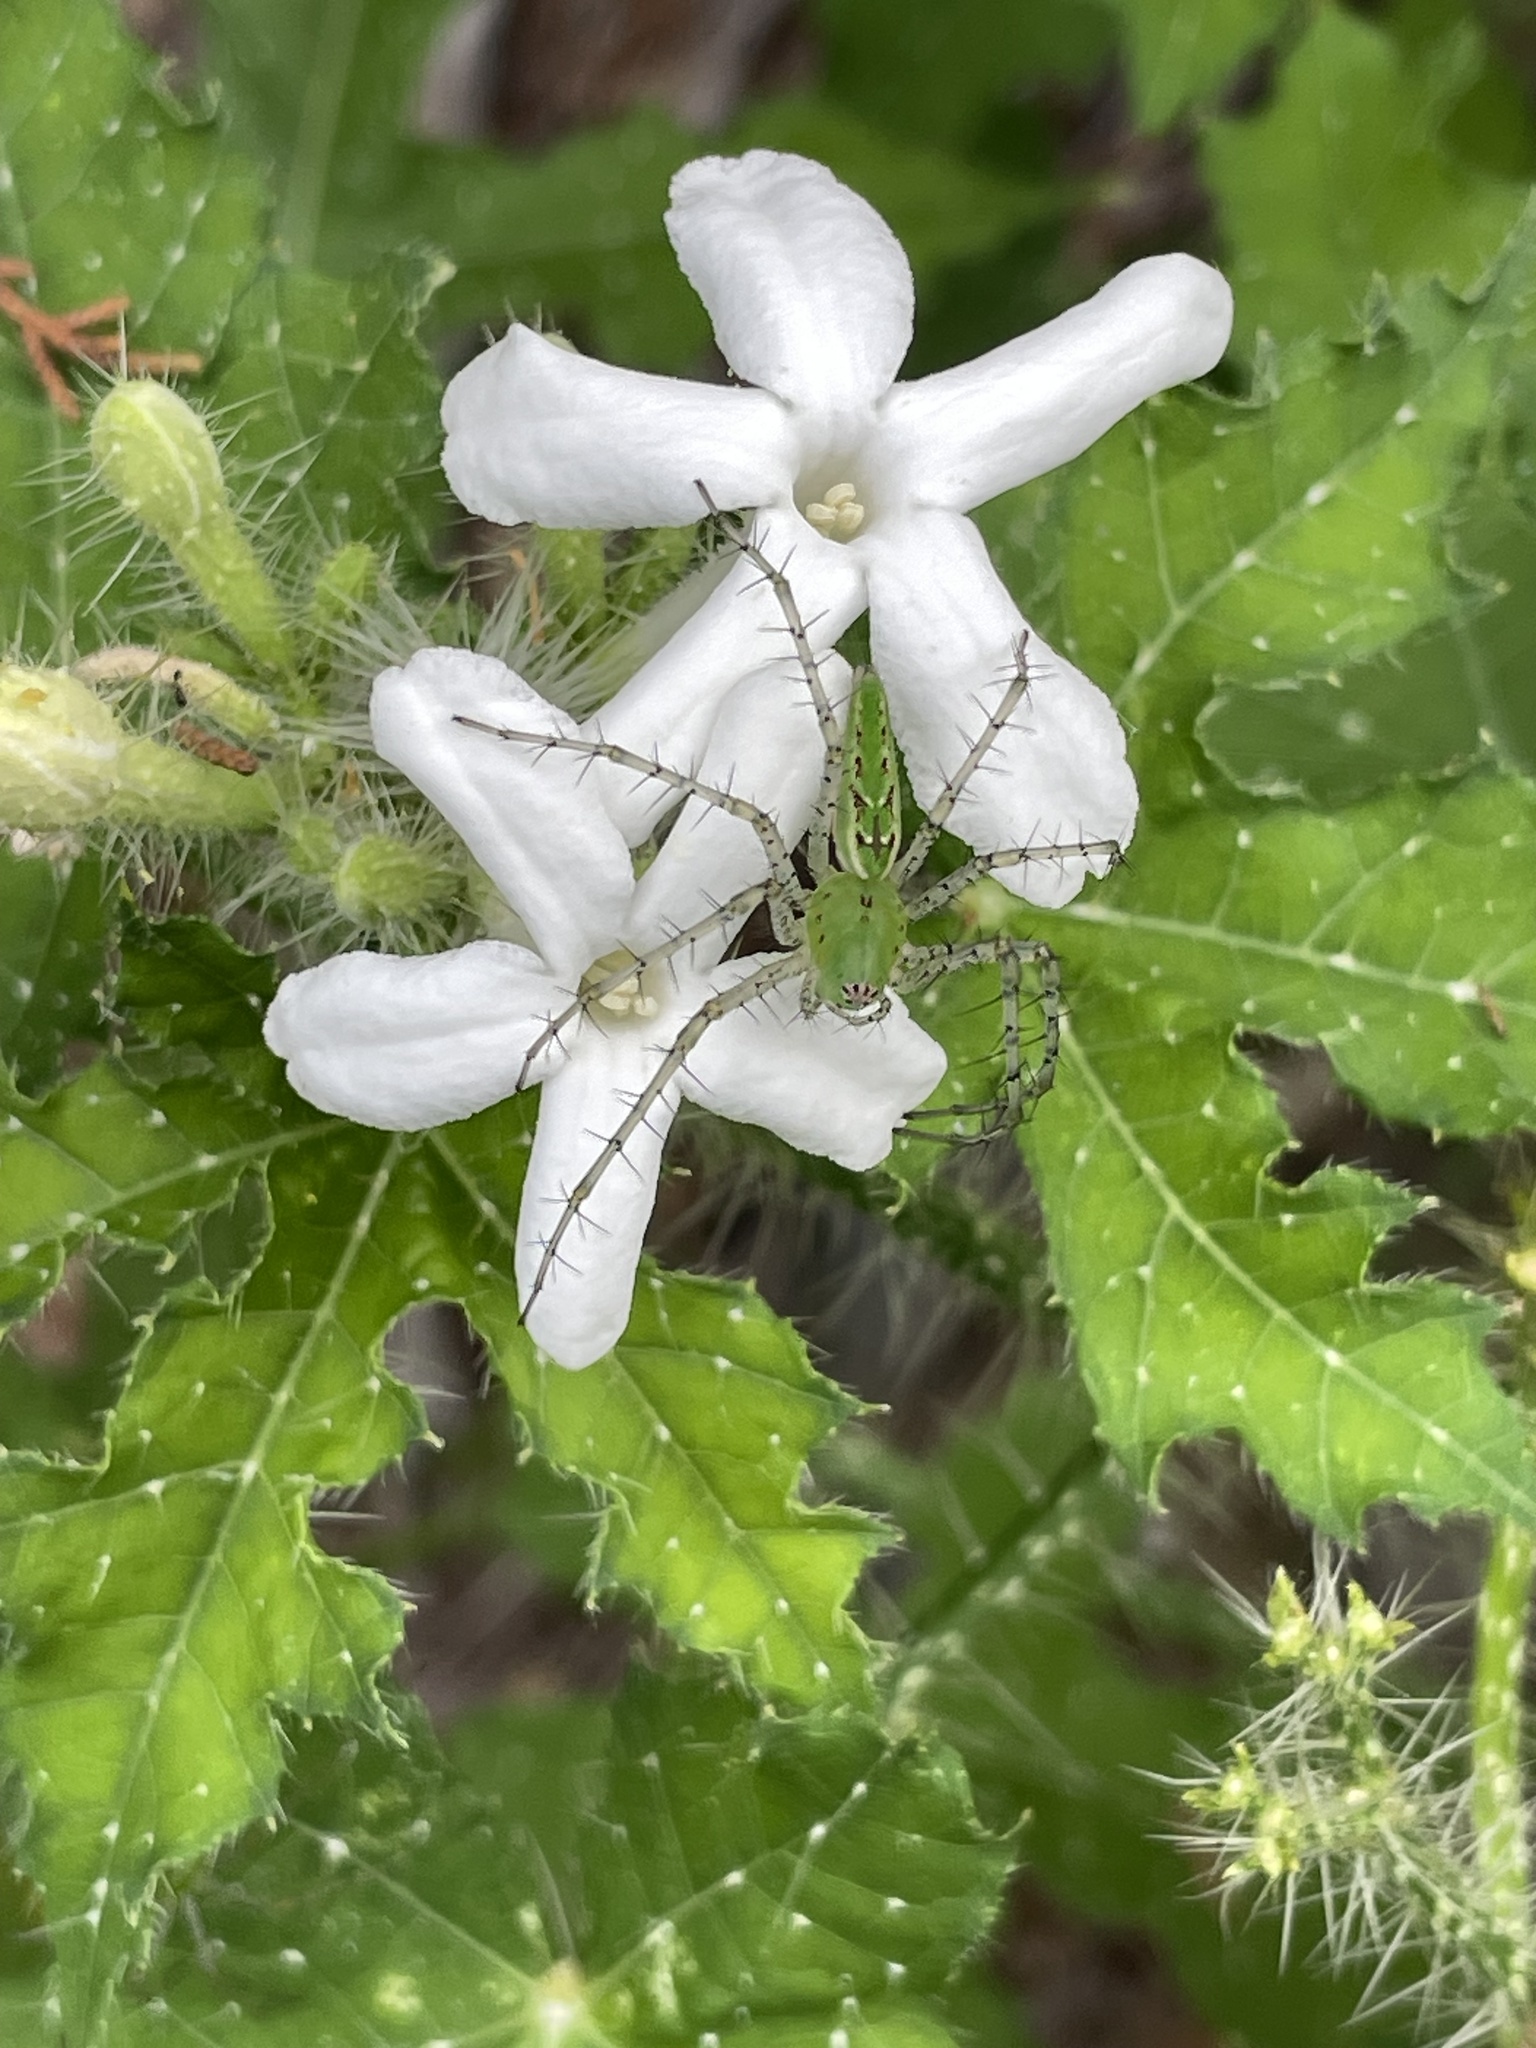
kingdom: Animalia
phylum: Arthropoda
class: Arachnida
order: Araneae
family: Oxyopidae
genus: Peucetia
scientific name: Peucetia viridans
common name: Lynx spiders
